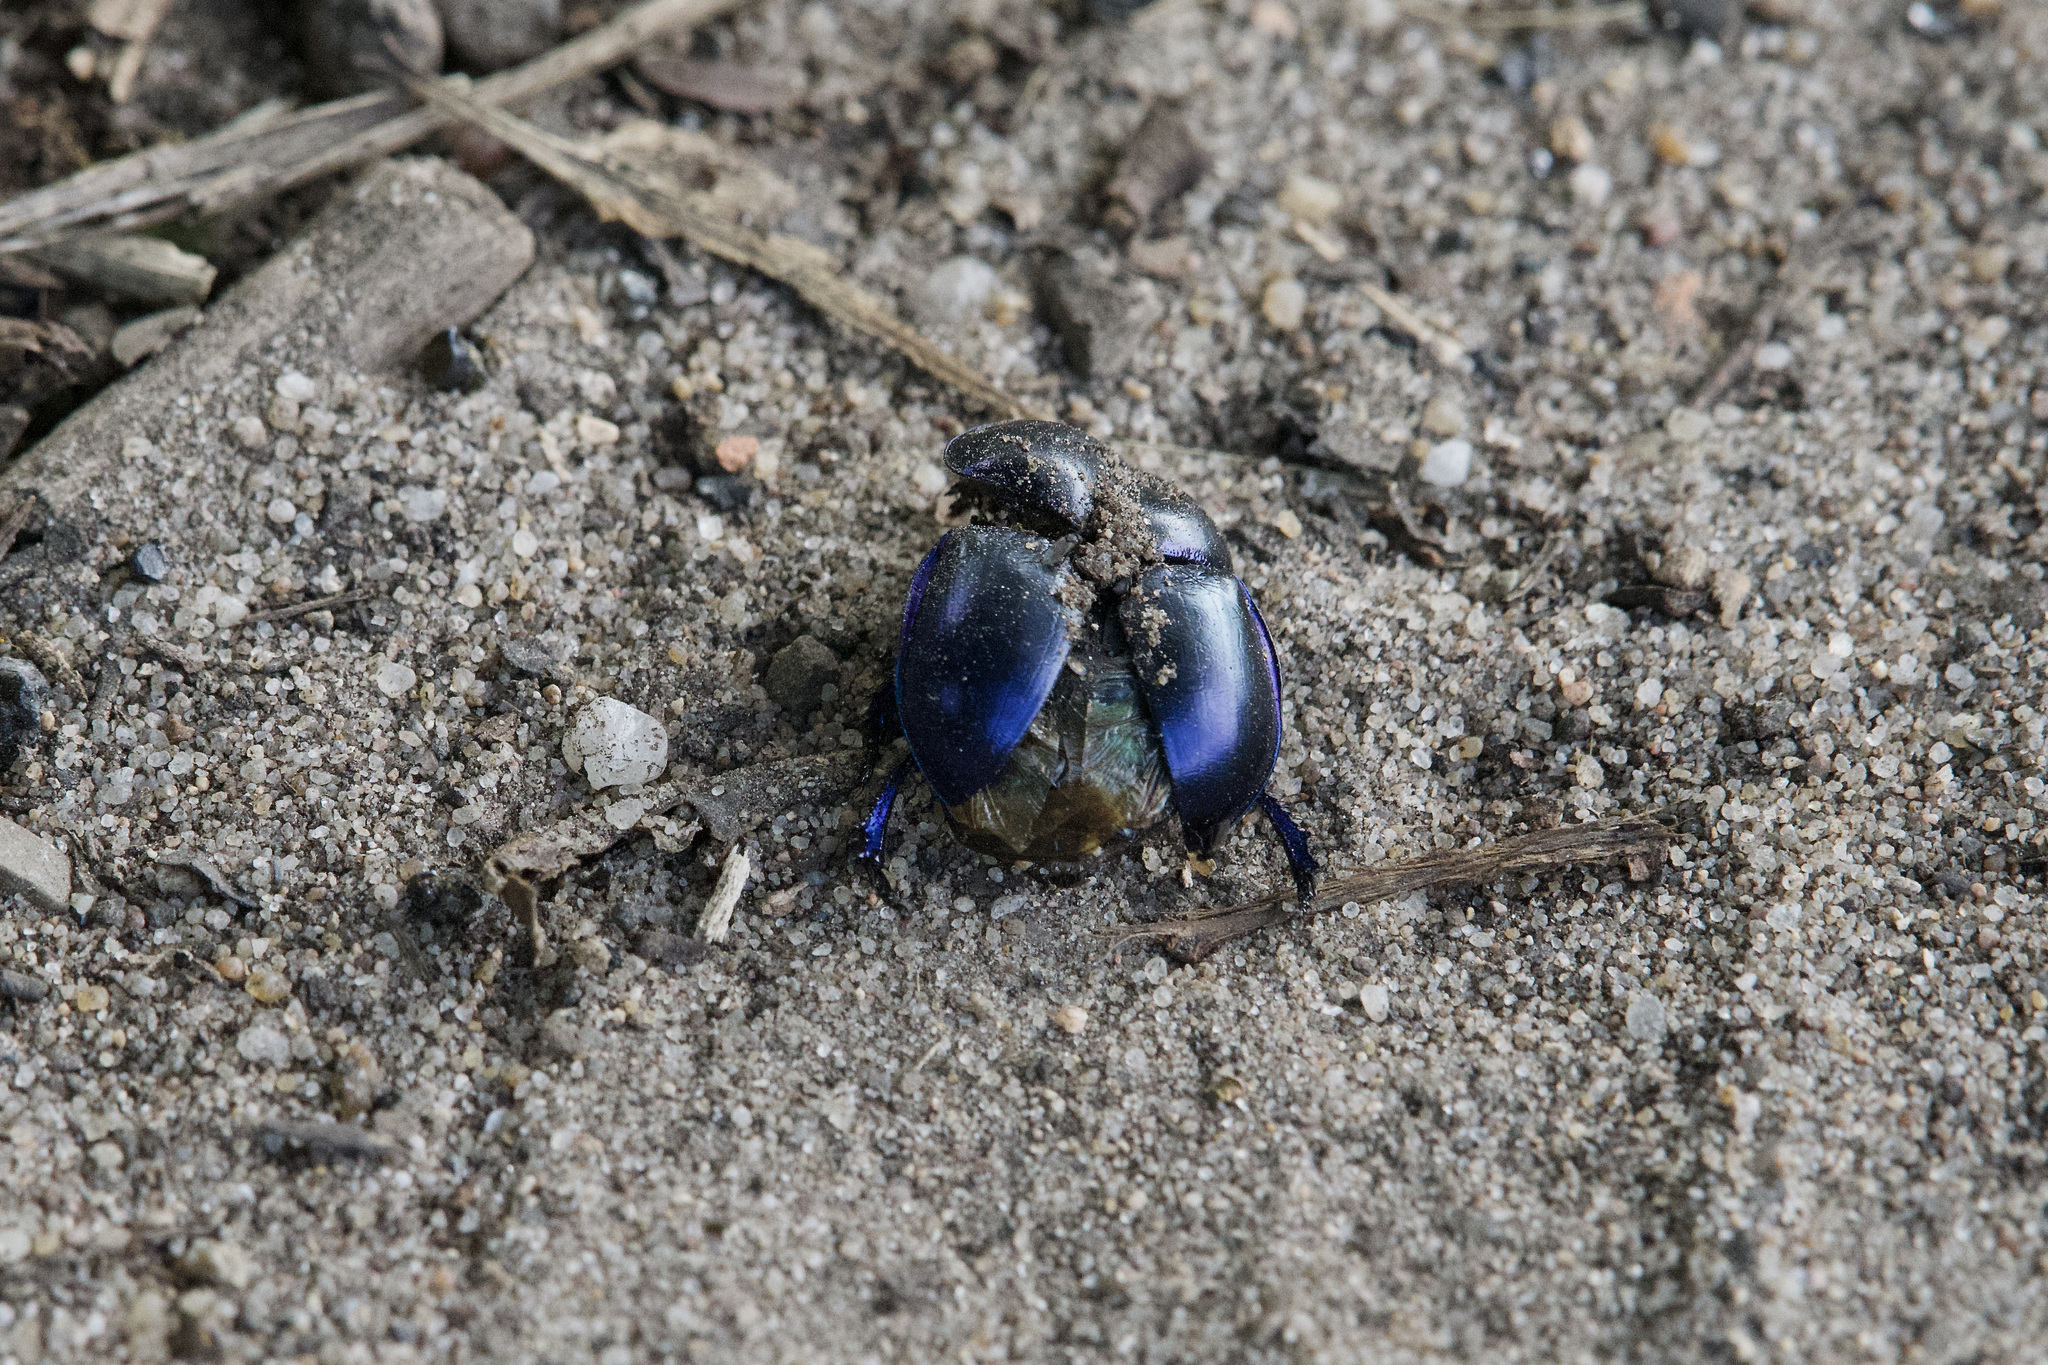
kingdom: Animalia
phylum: Arthropoda
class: Insecta
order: Coleoptera
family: Geotrupidae
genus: Trypocopris
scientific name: Trypocopris vernalis
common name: Spring dumbledor
